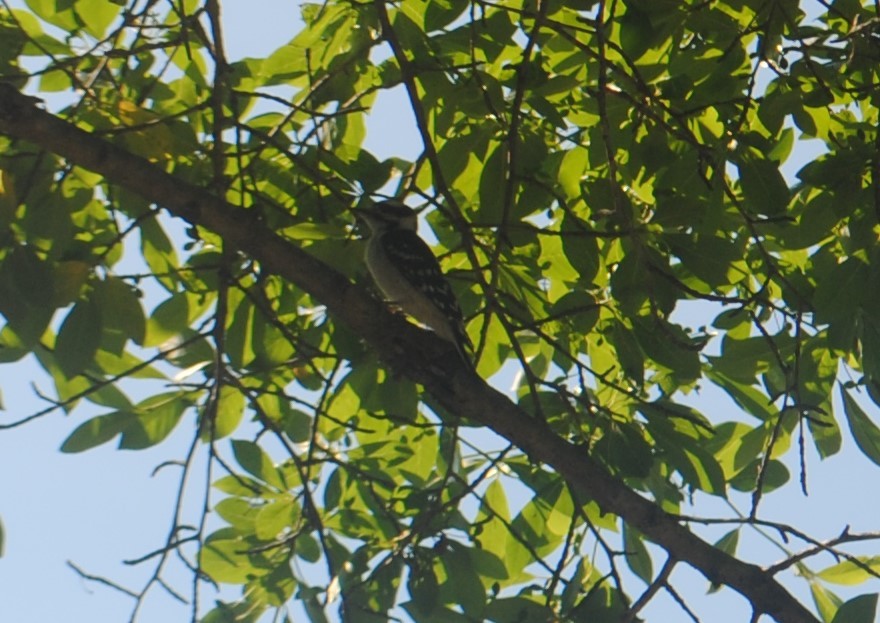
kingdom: Animalia
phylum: Chordata
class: Aves
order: Piciformes
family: Picidae
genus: Dryobates
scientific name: Dryobates pubescens
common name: Downy woodpecker
